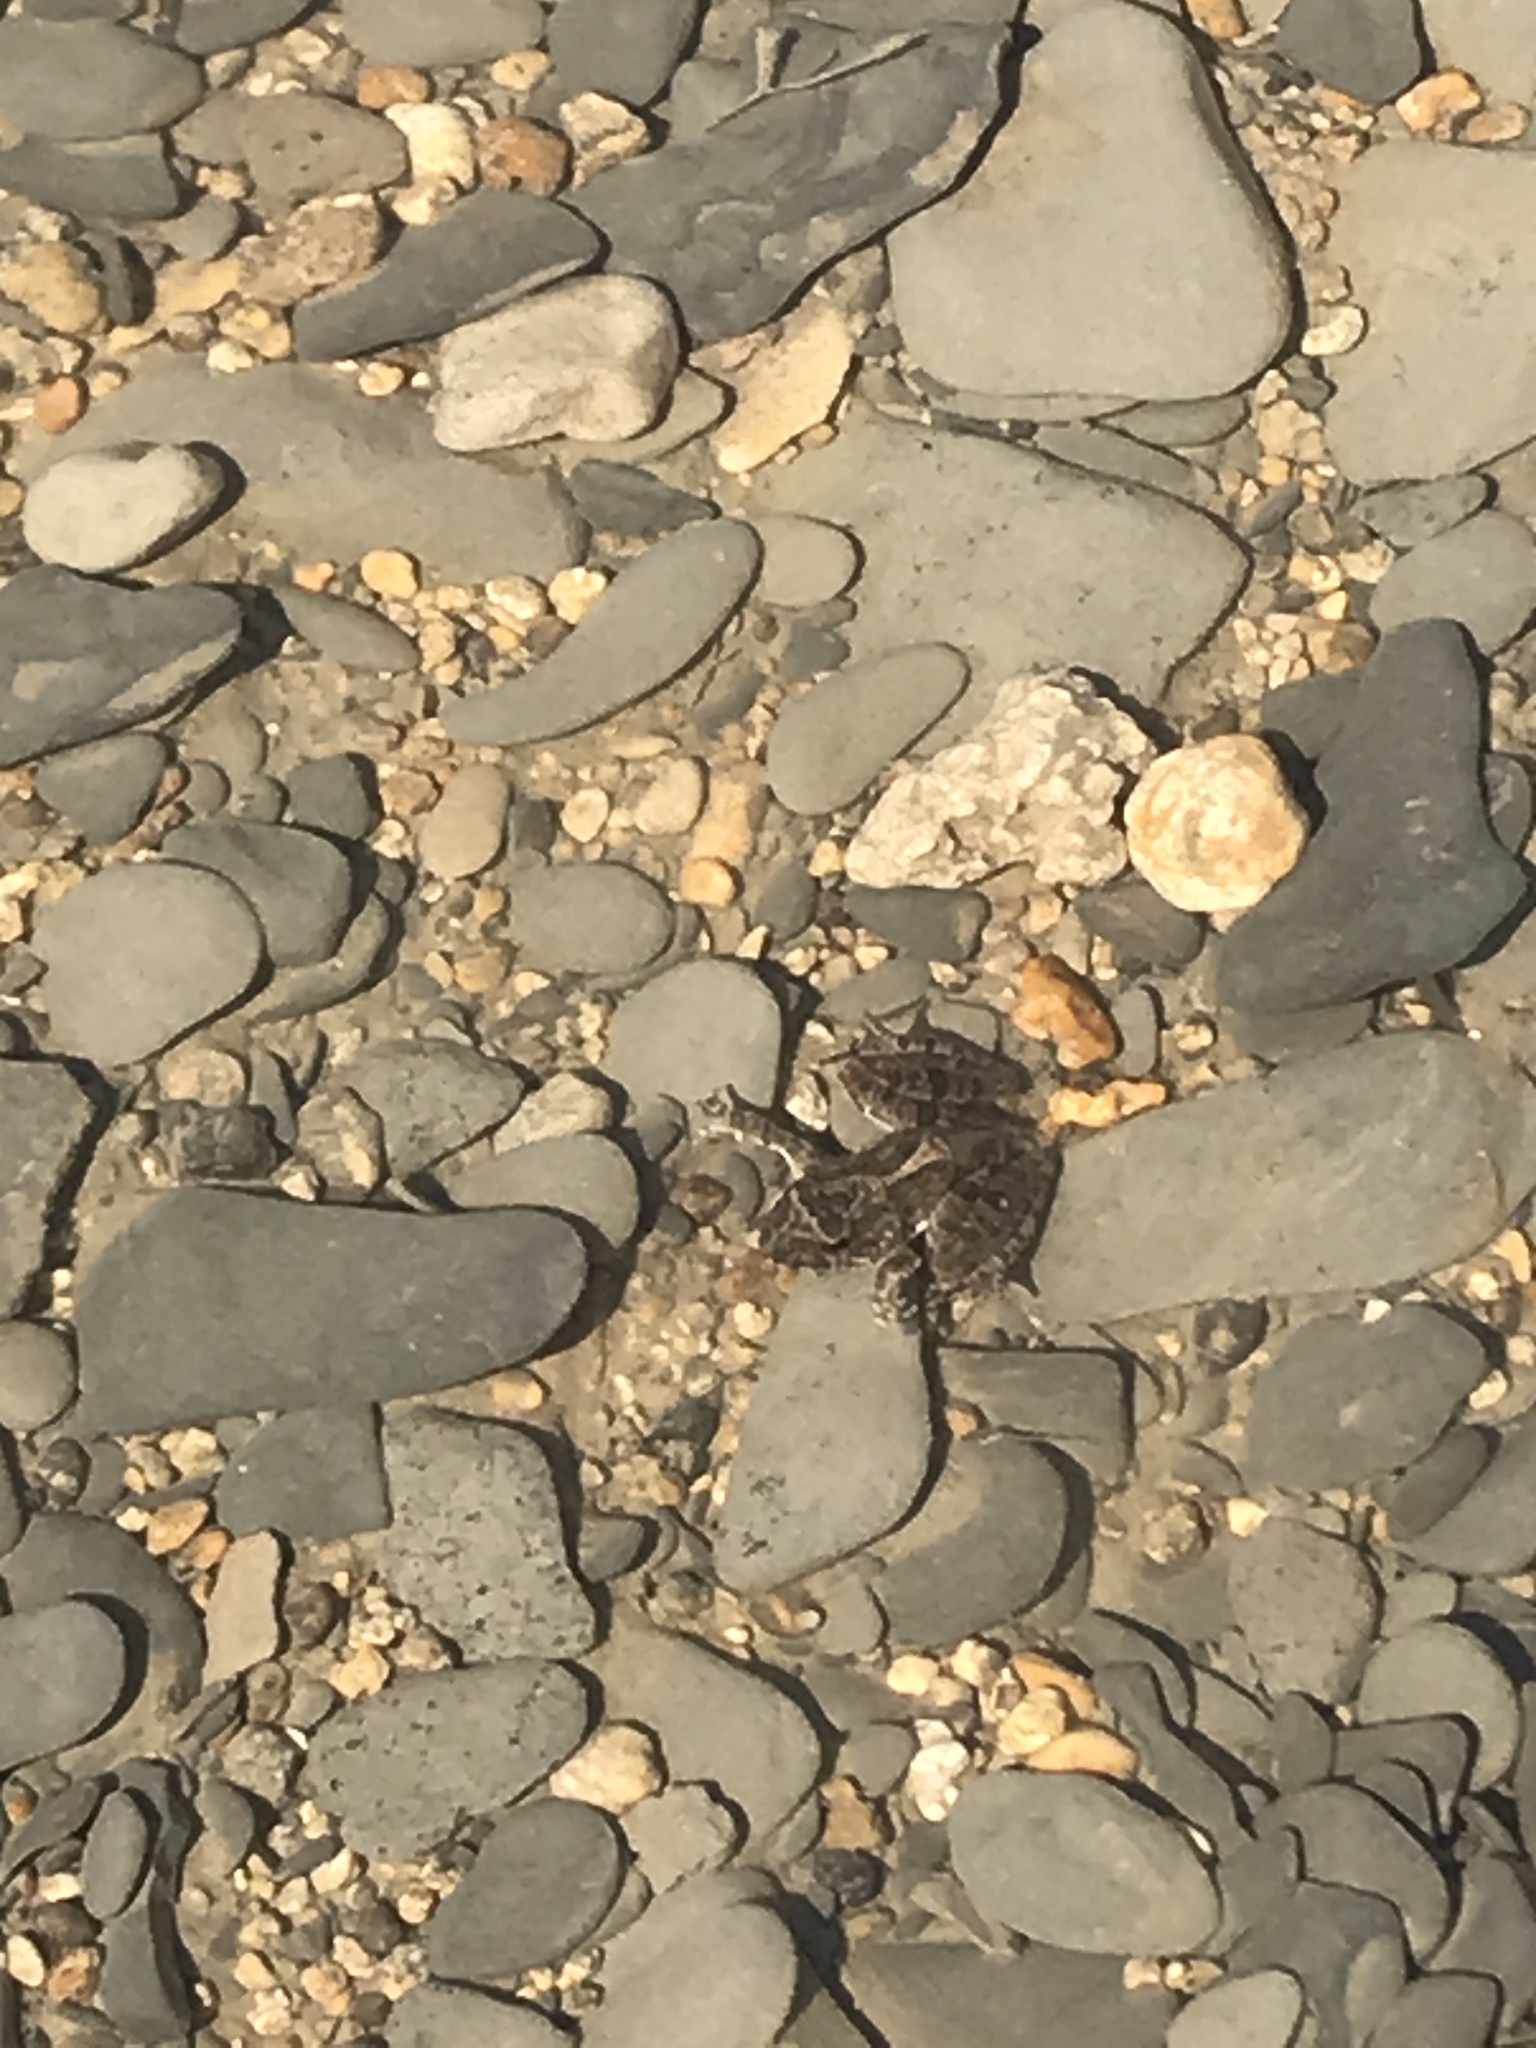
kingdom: Animalia
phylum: Chordata
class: Amphibia
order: Anura
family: Hylidae
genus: Acris
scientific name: Acris blanchardi
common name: Blanchard's cricket frog
